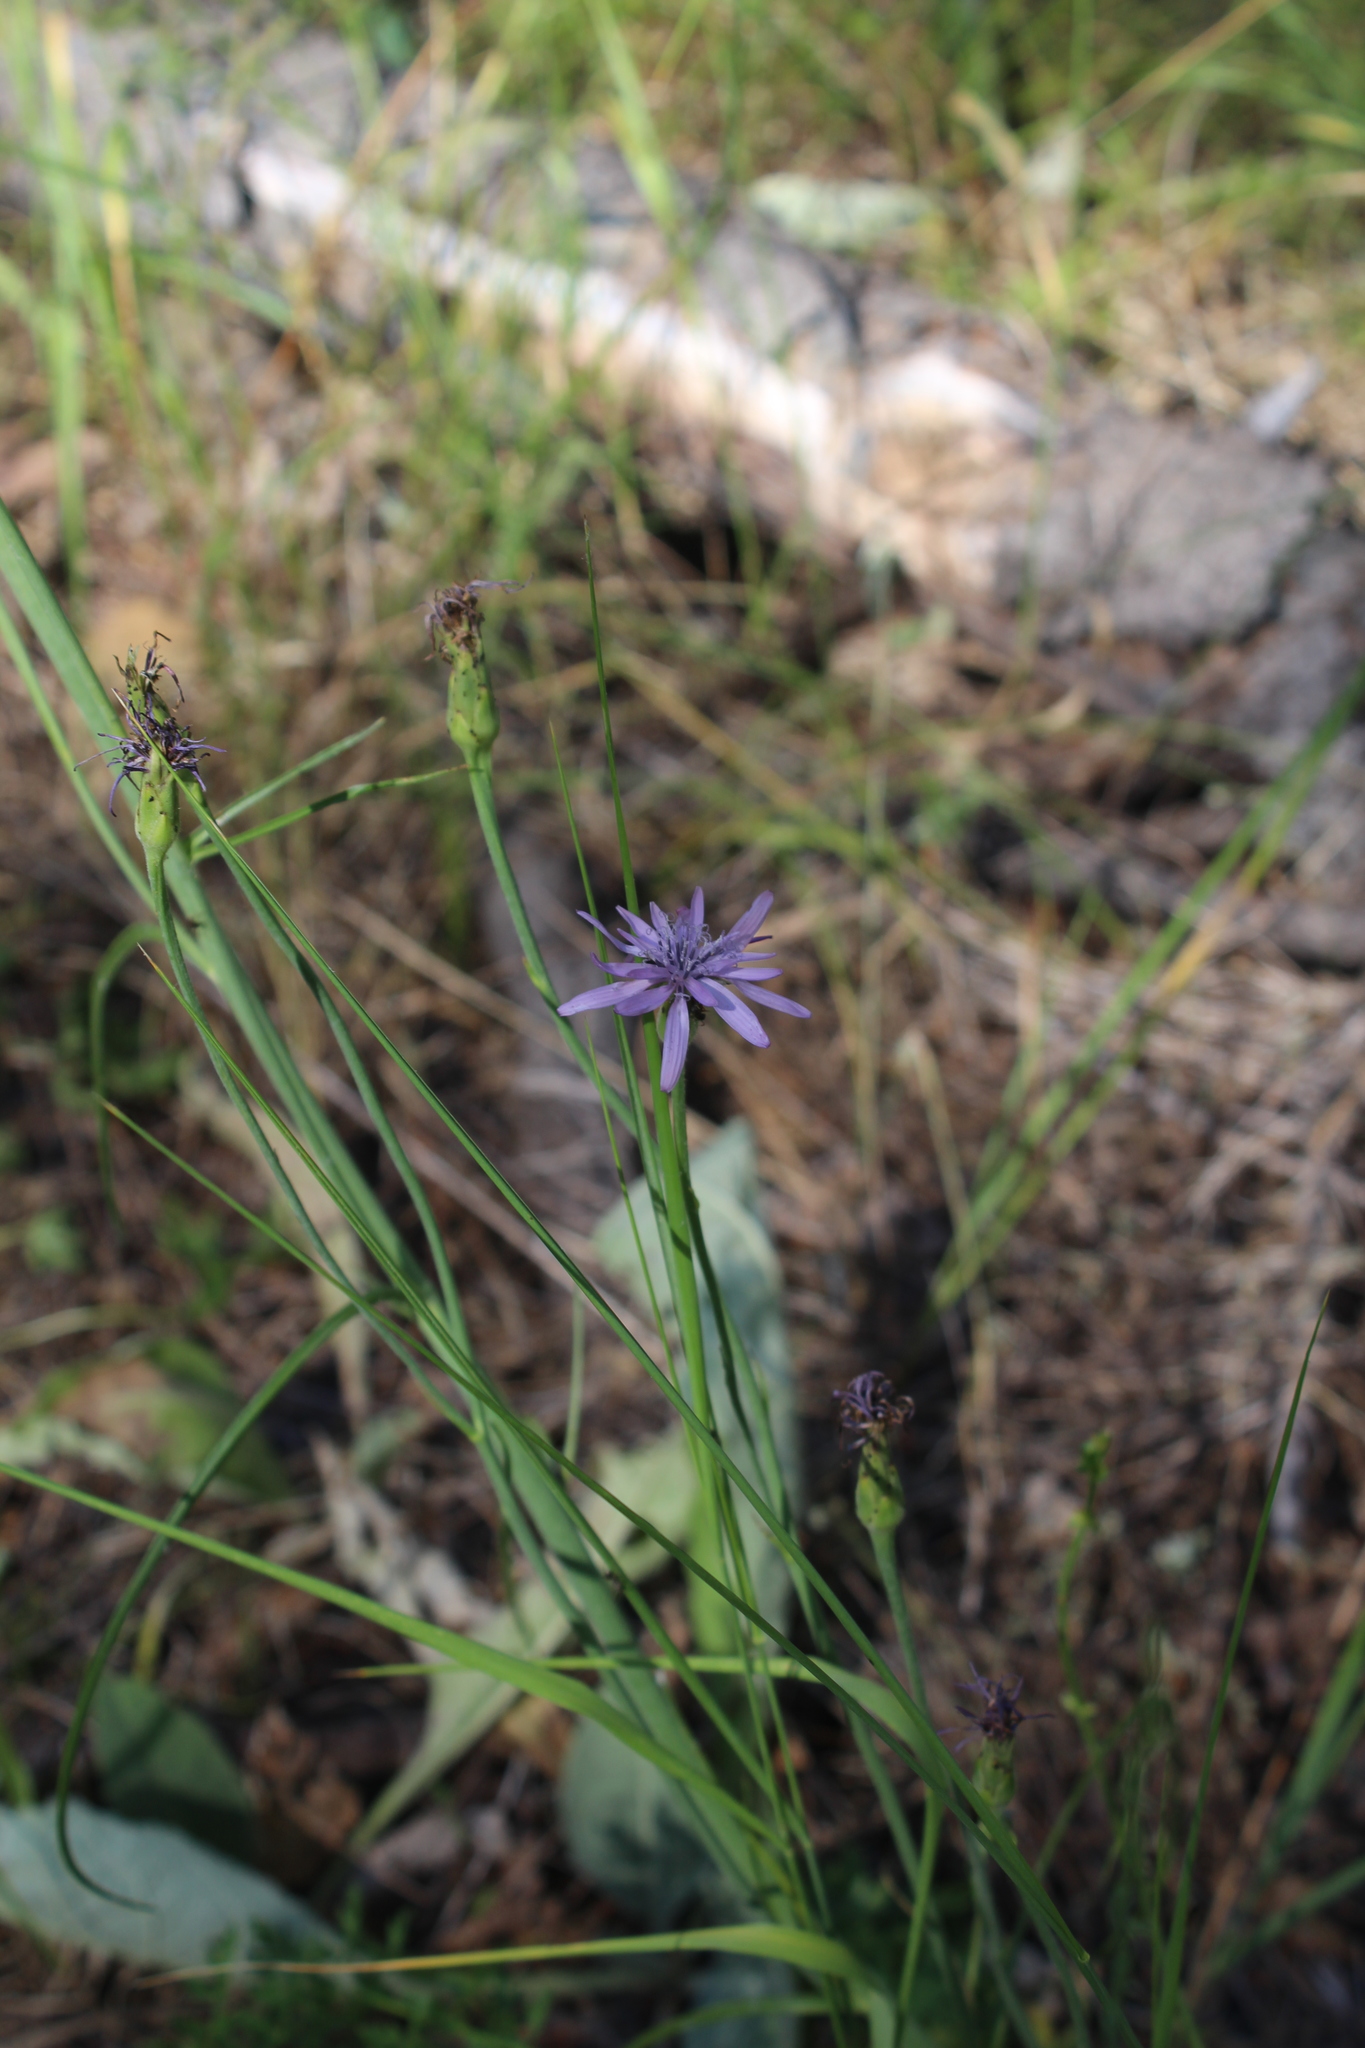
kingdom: Plantae
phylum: Tracheophyta
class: Magnoliopsida
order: Asterales
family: Asteraceae
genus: Scorzonera
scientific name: Scorzonera purpurea
